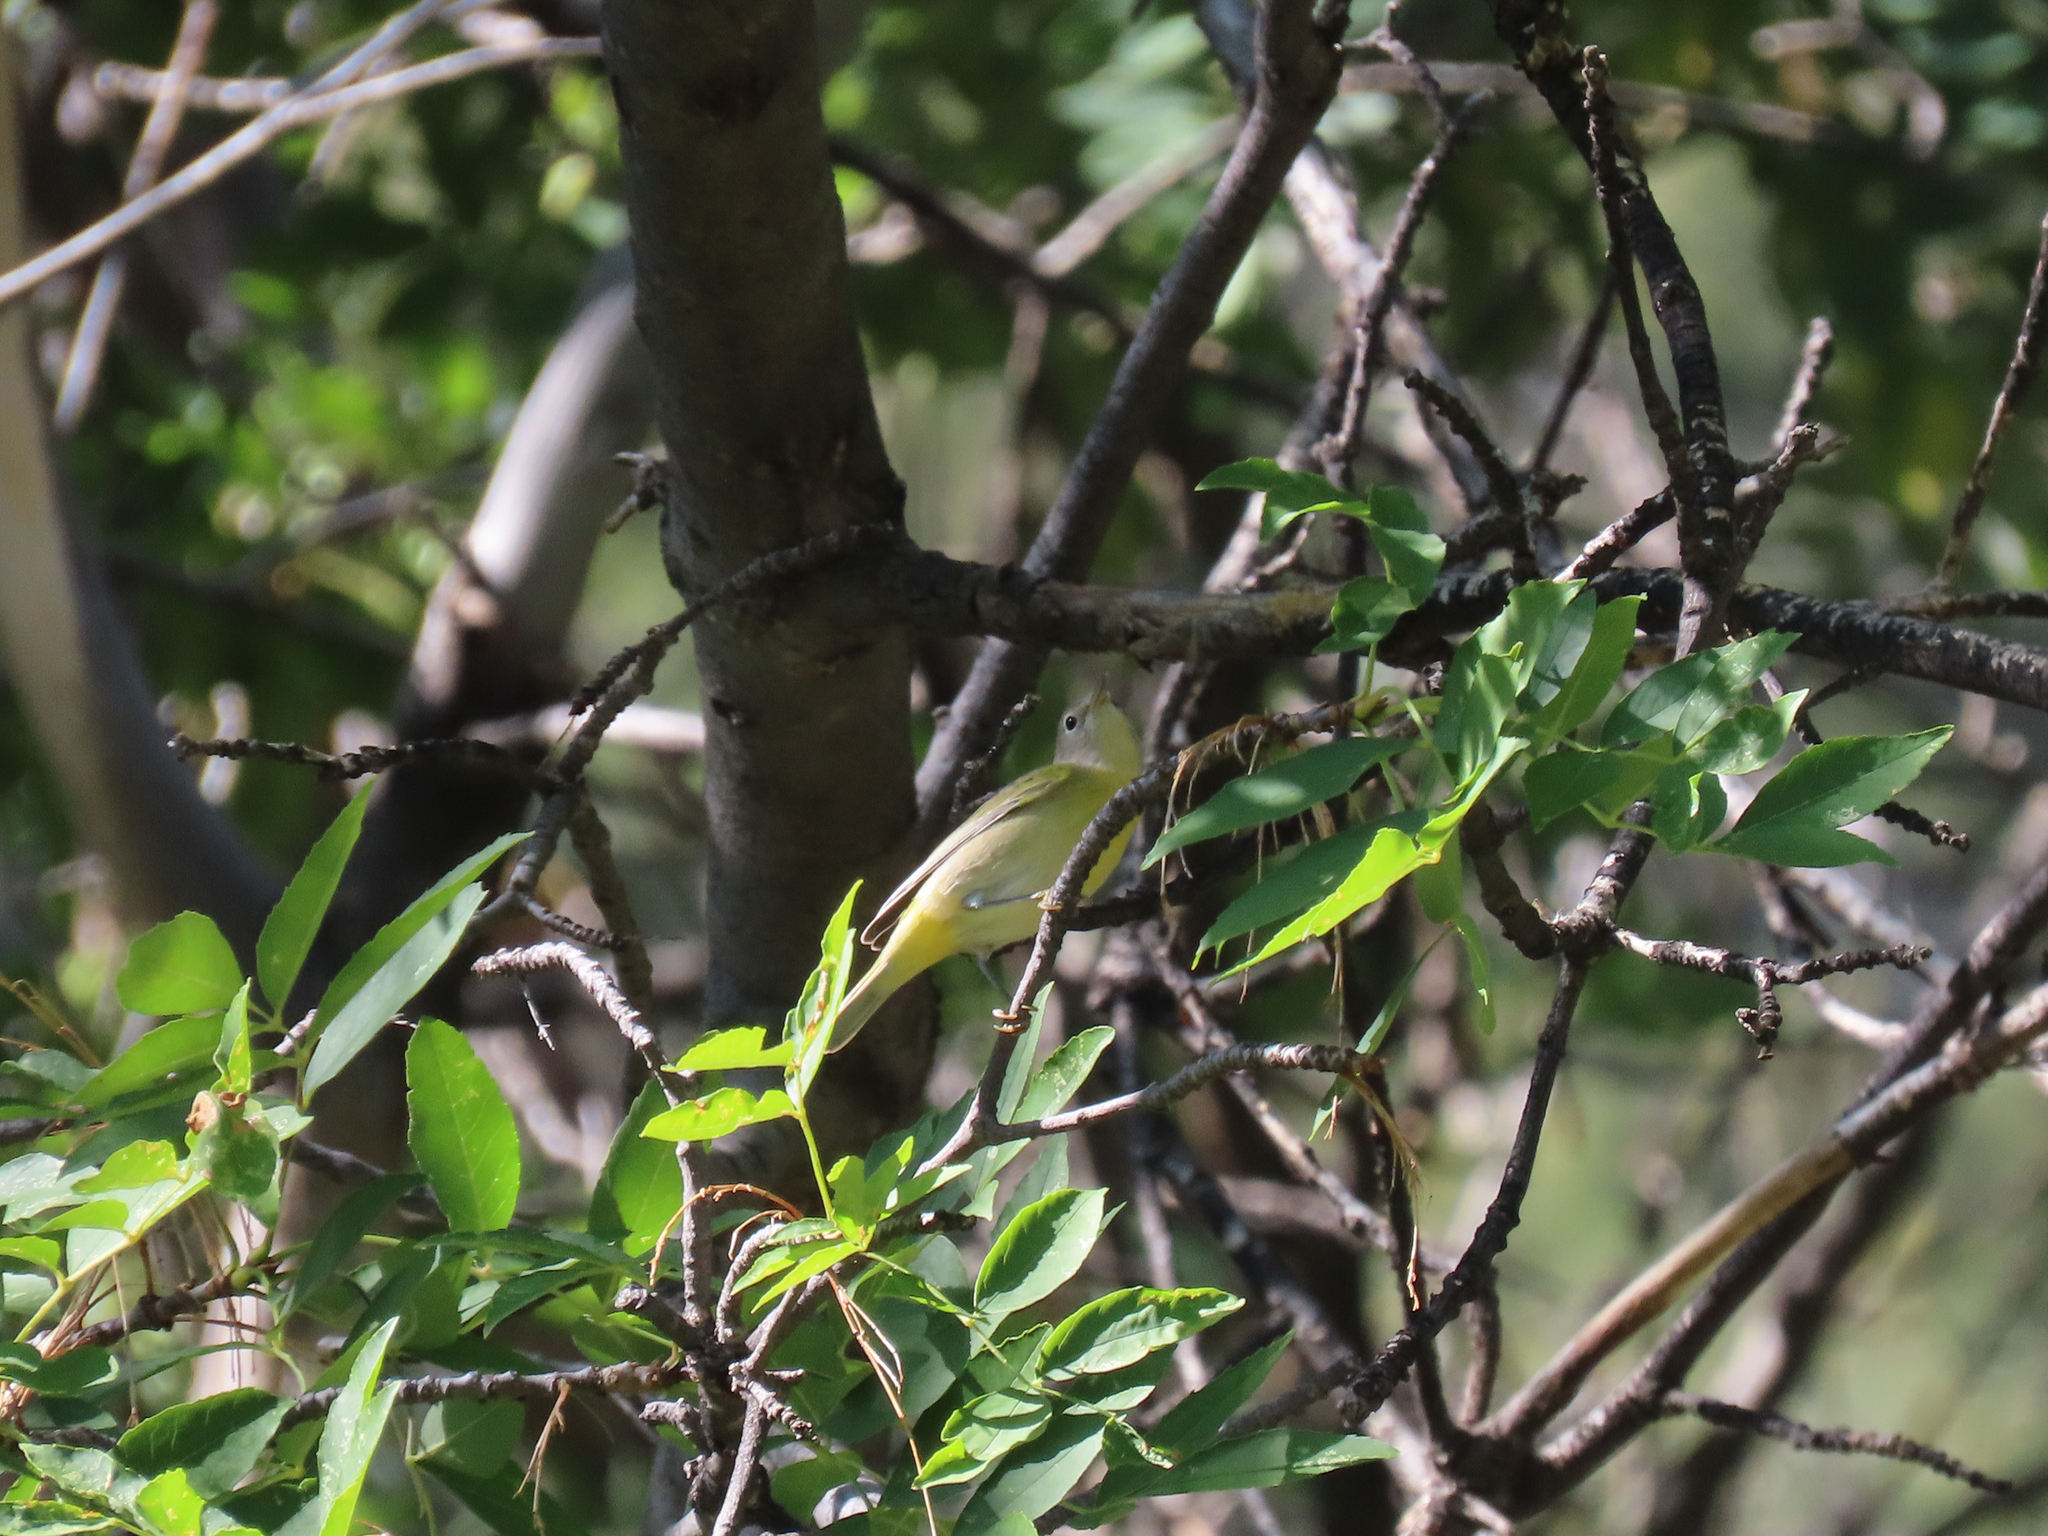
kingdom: Animalia
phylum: Chordata
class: Aves
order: Passeriformes
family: Parulidae
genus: Leiothlypis
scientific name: Leiothlypis ruficapilla
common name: Nashville warbler
